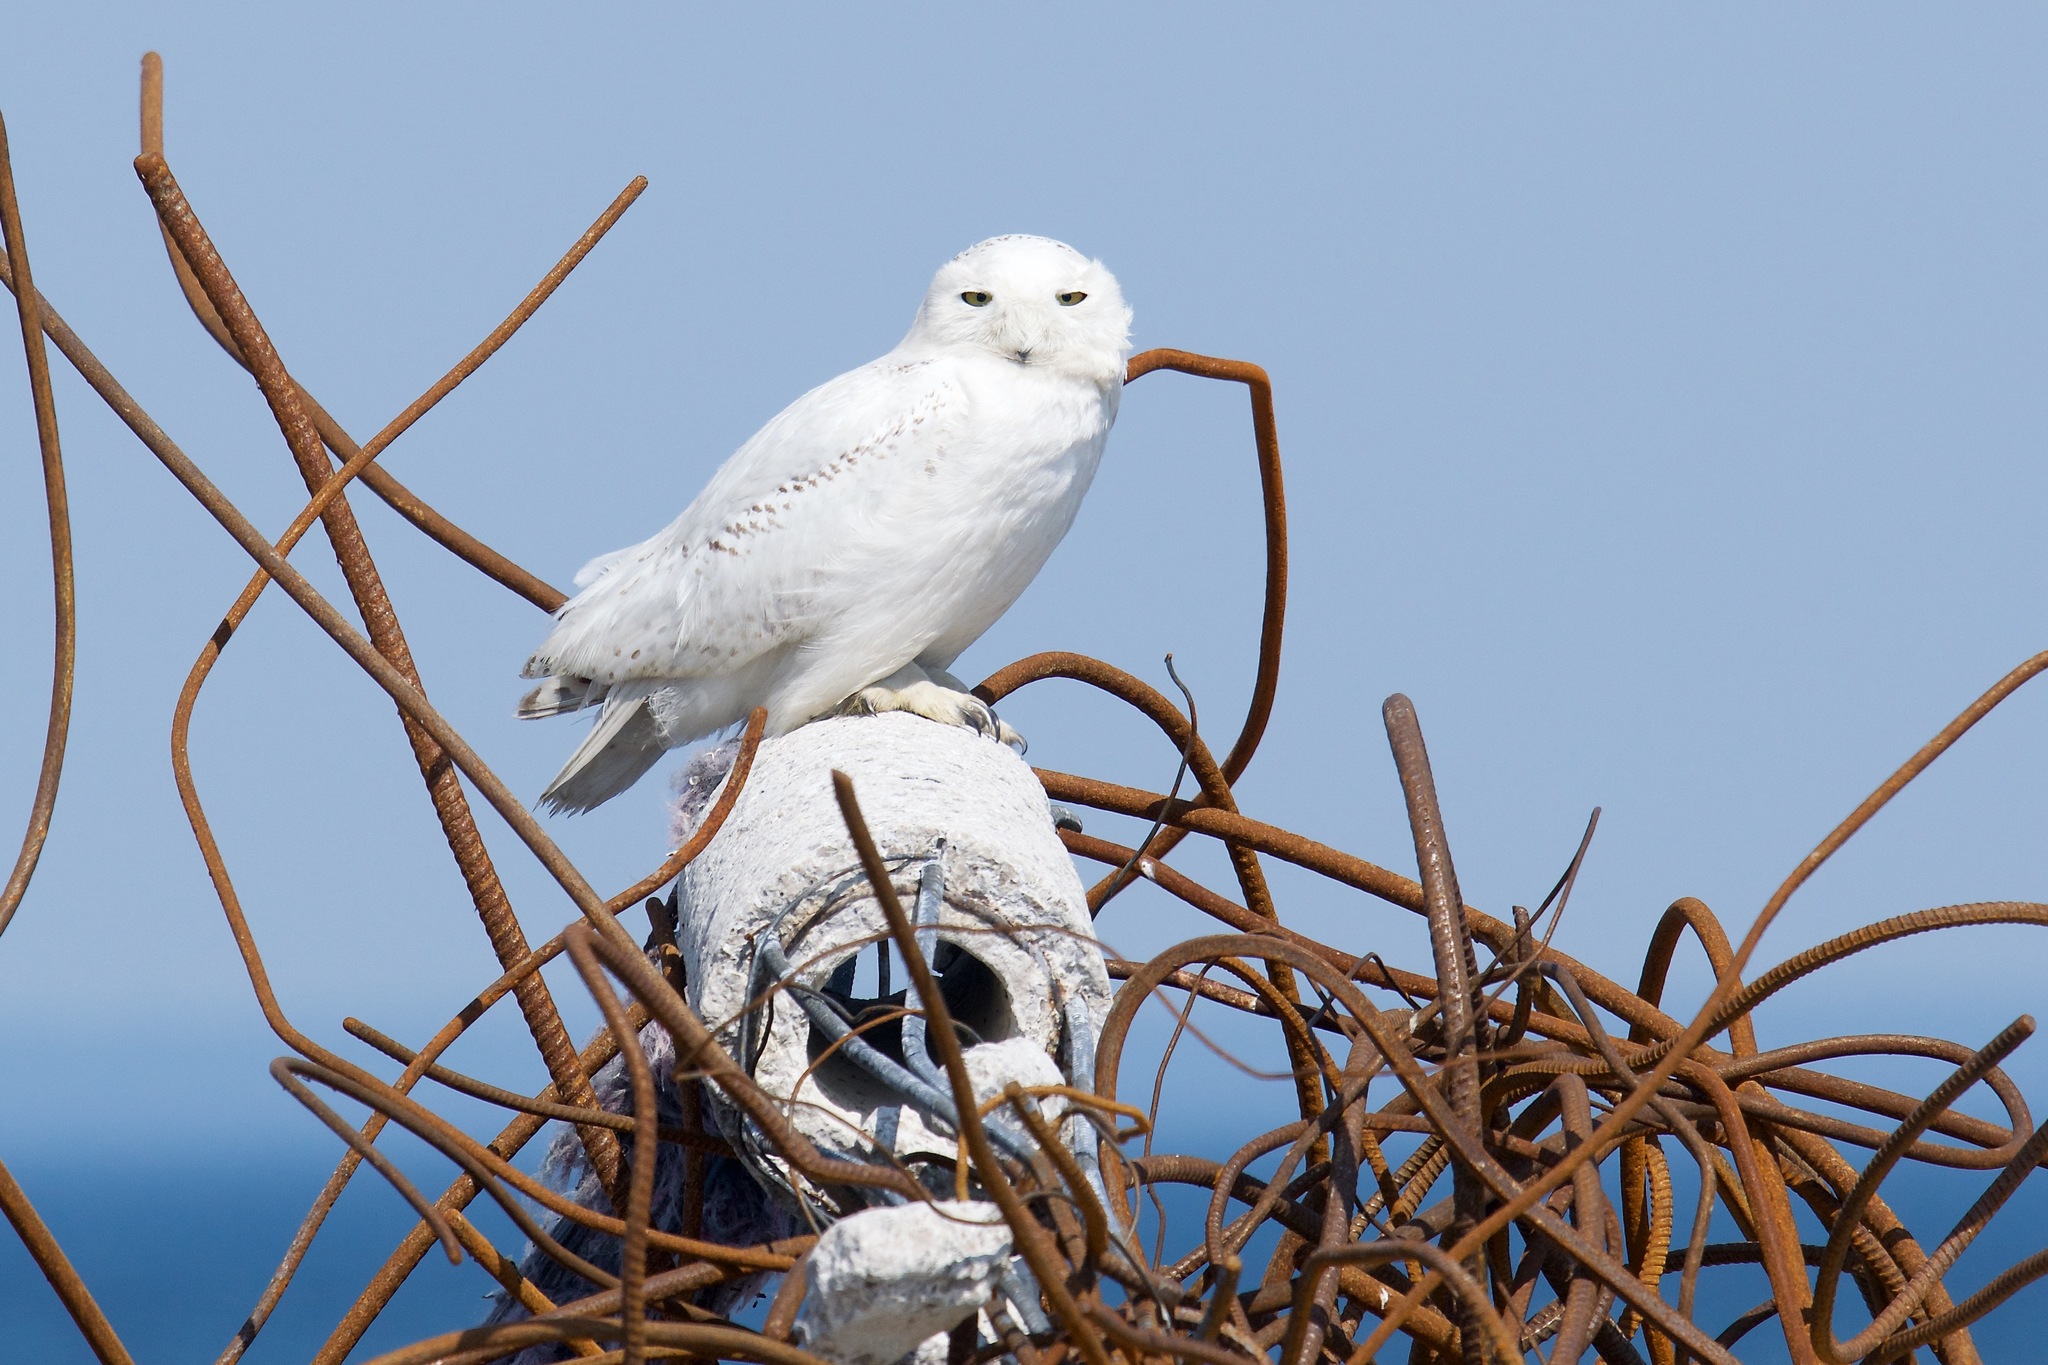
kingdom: Animalia
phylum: Chordata
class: Aves
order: Strigiformes
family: Strigidae
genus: Bubo
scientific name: Bubo scandiacus
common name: Snowy owl
